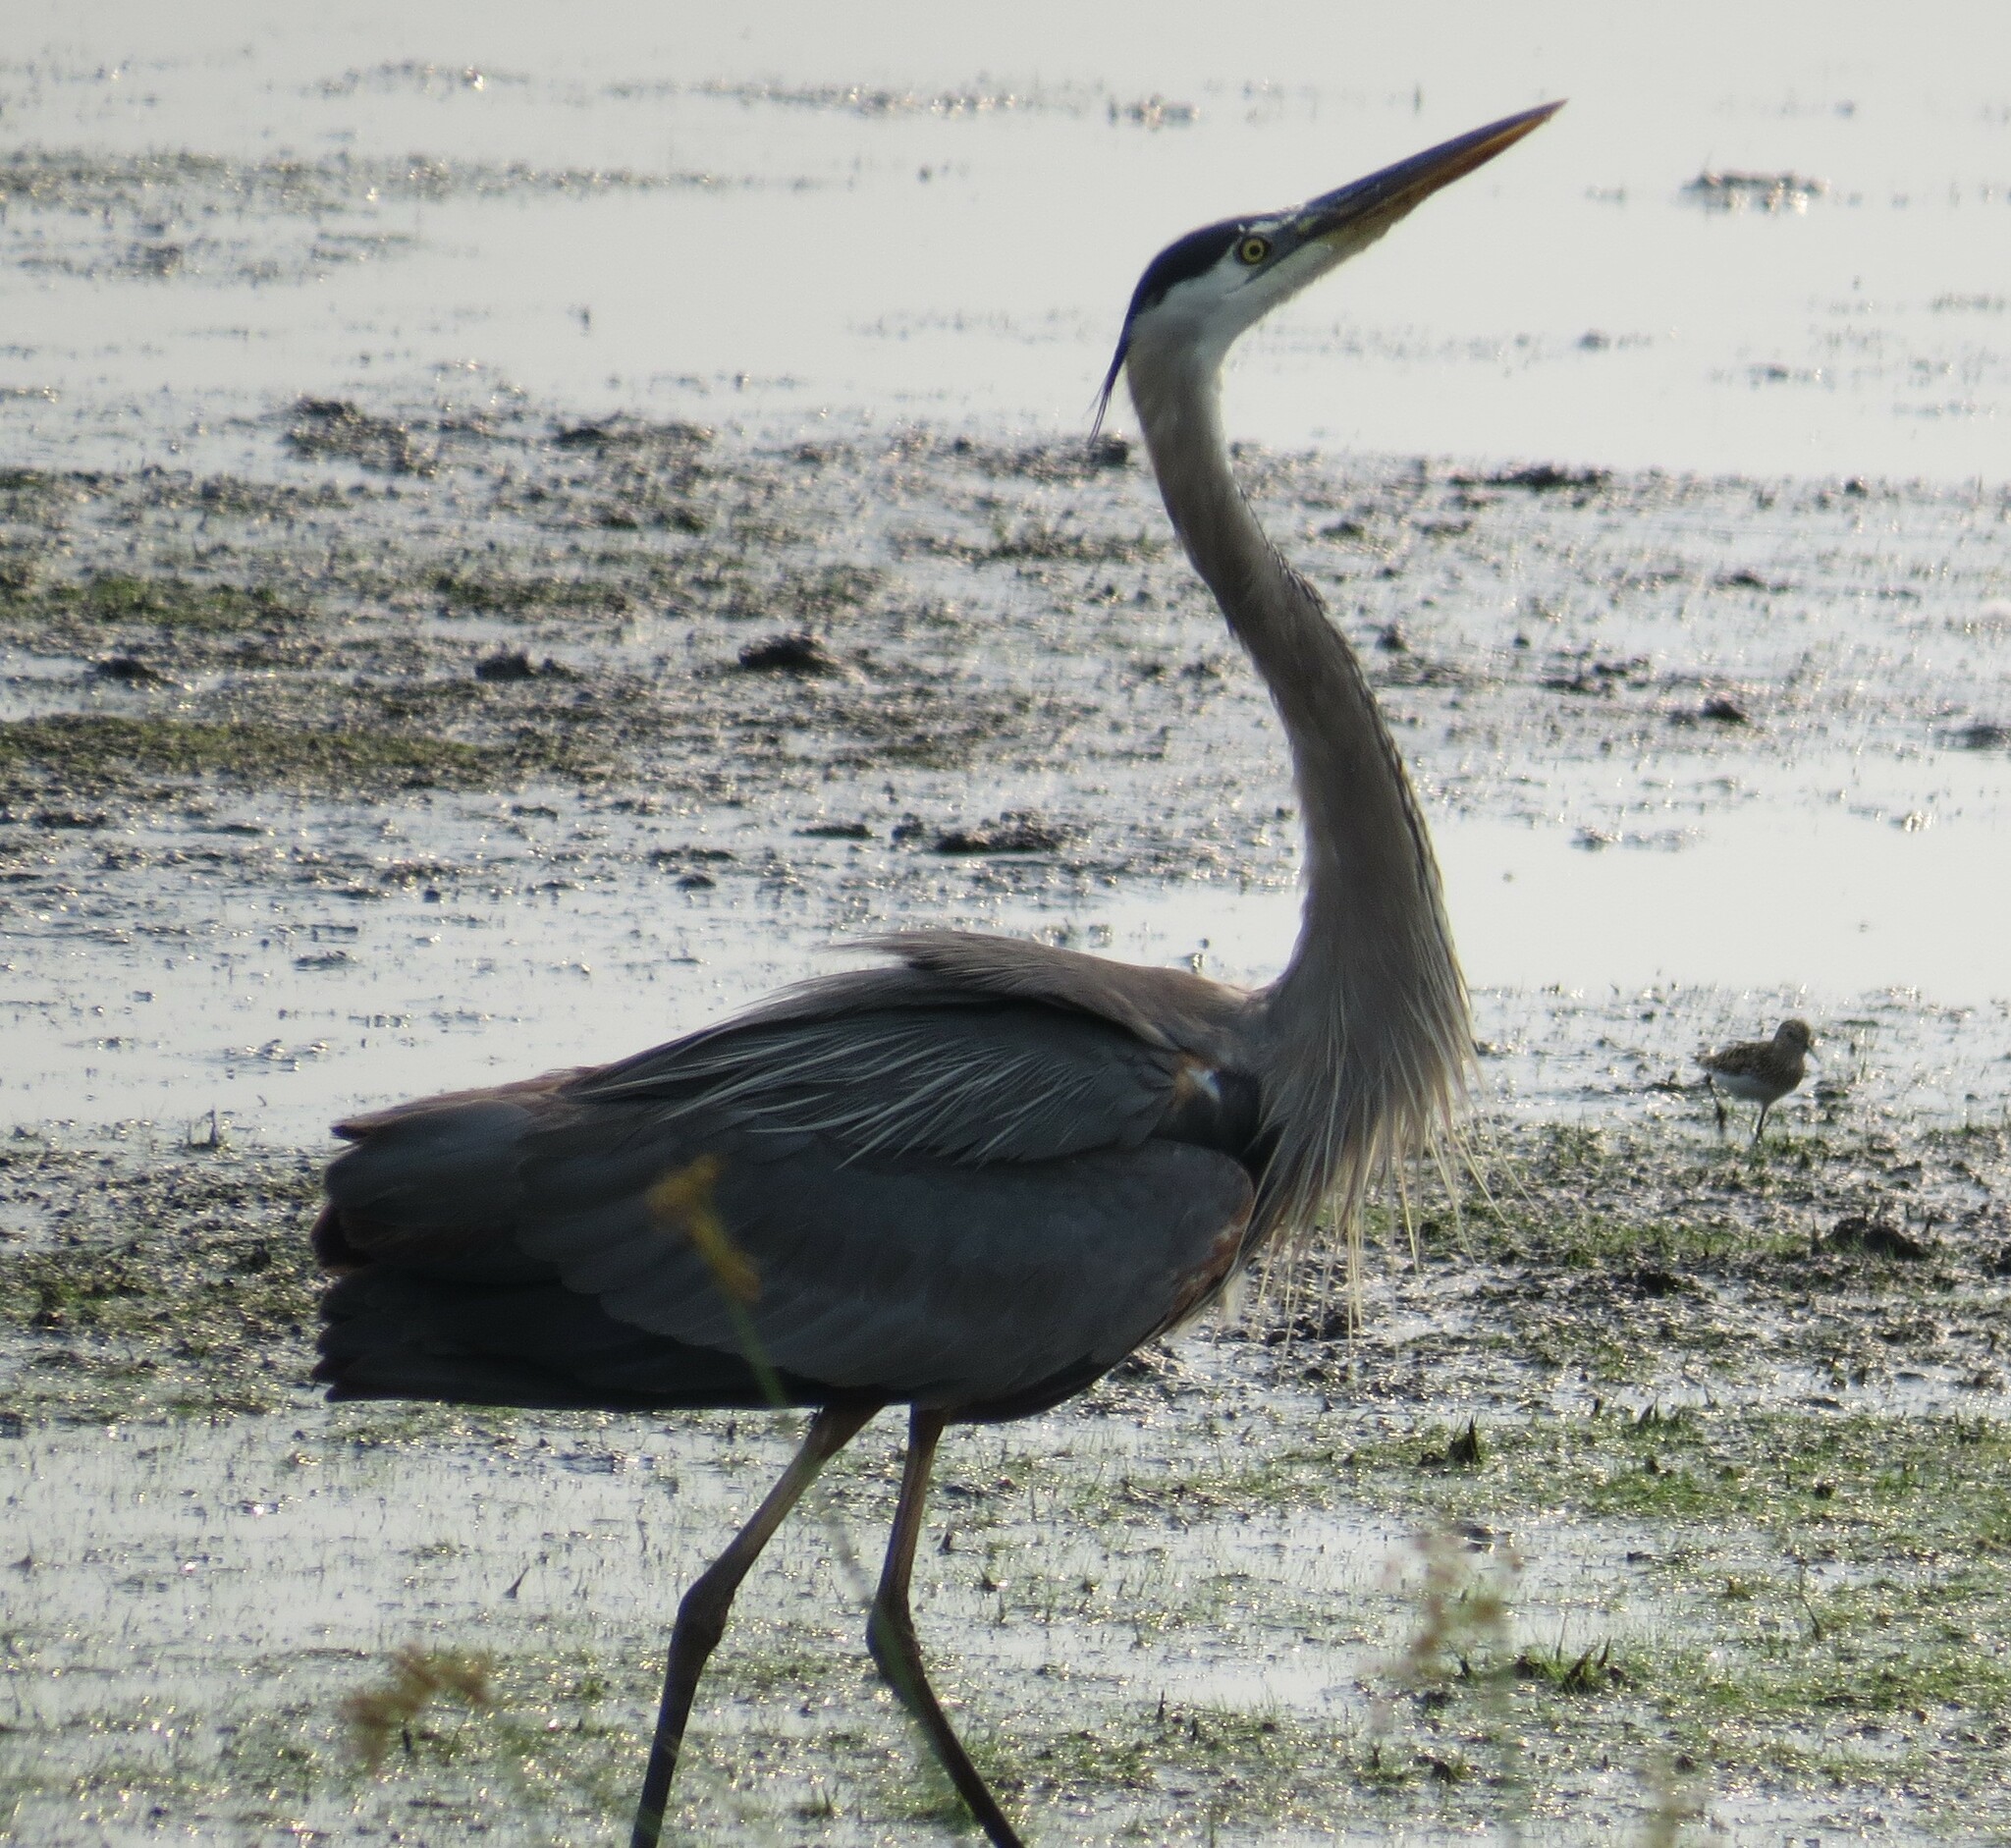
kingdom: Animalia
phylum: Chordata
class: Aves
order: Pelecaniformes
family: Ardeidae
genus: Ardea
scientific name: Ardea herodias
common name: Great blue heron
